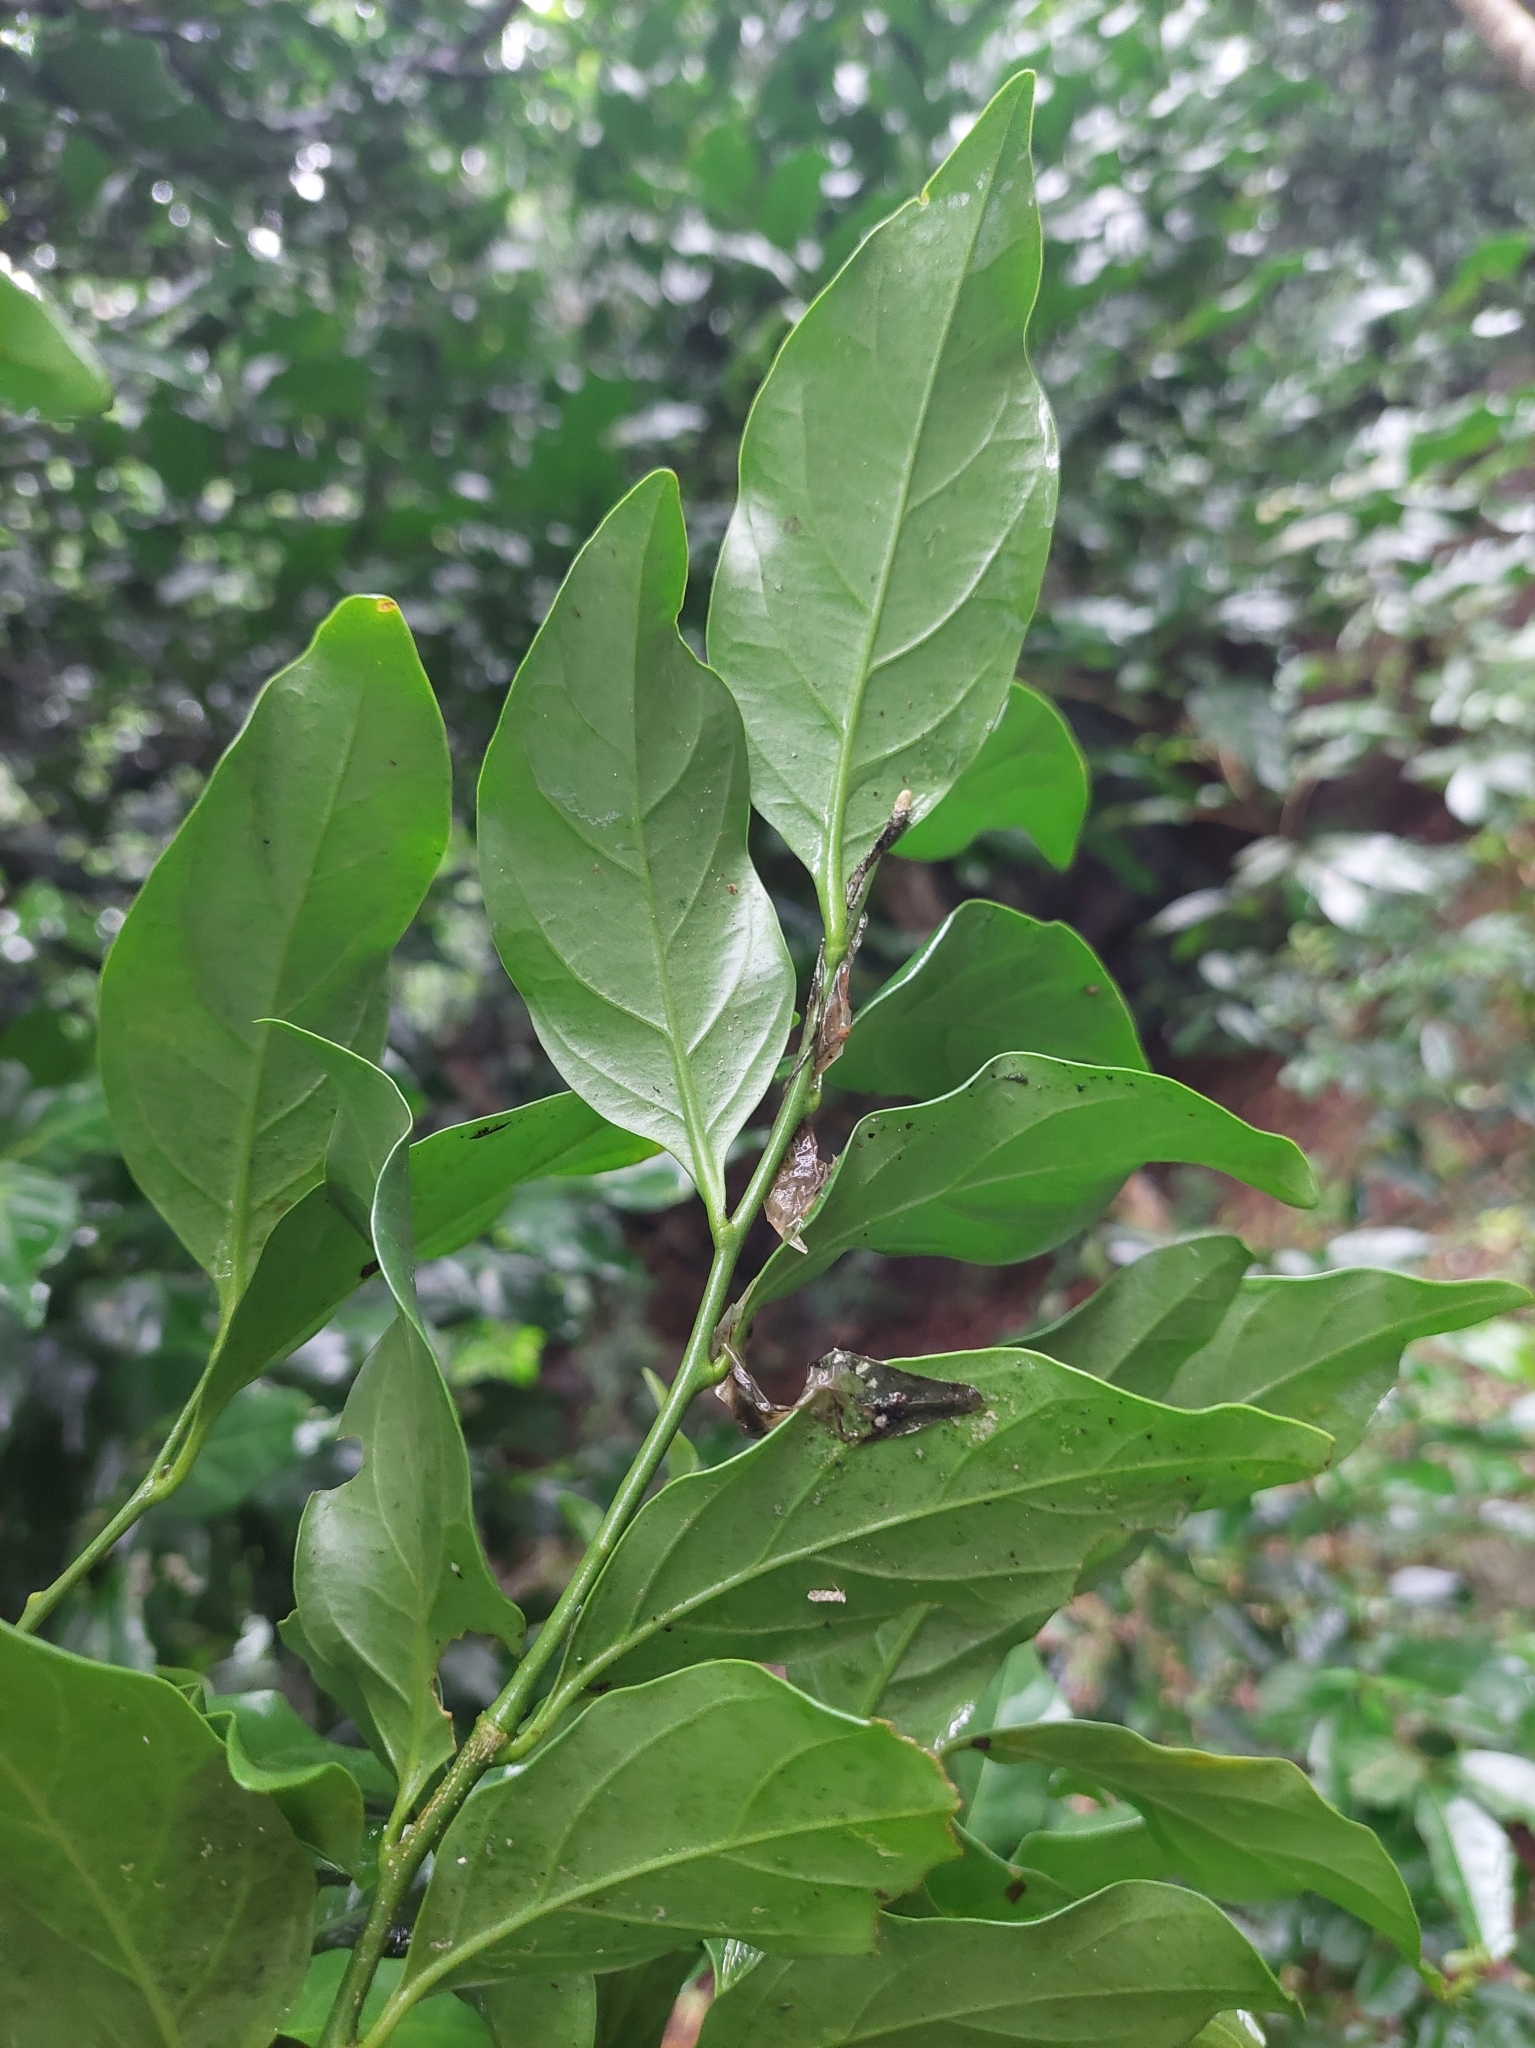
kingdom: Plantae
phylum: Tracheophyta
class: Magnoliopsida
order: Santalales
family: Opiliaceae
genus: Champereia
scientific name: Champereia manillana
